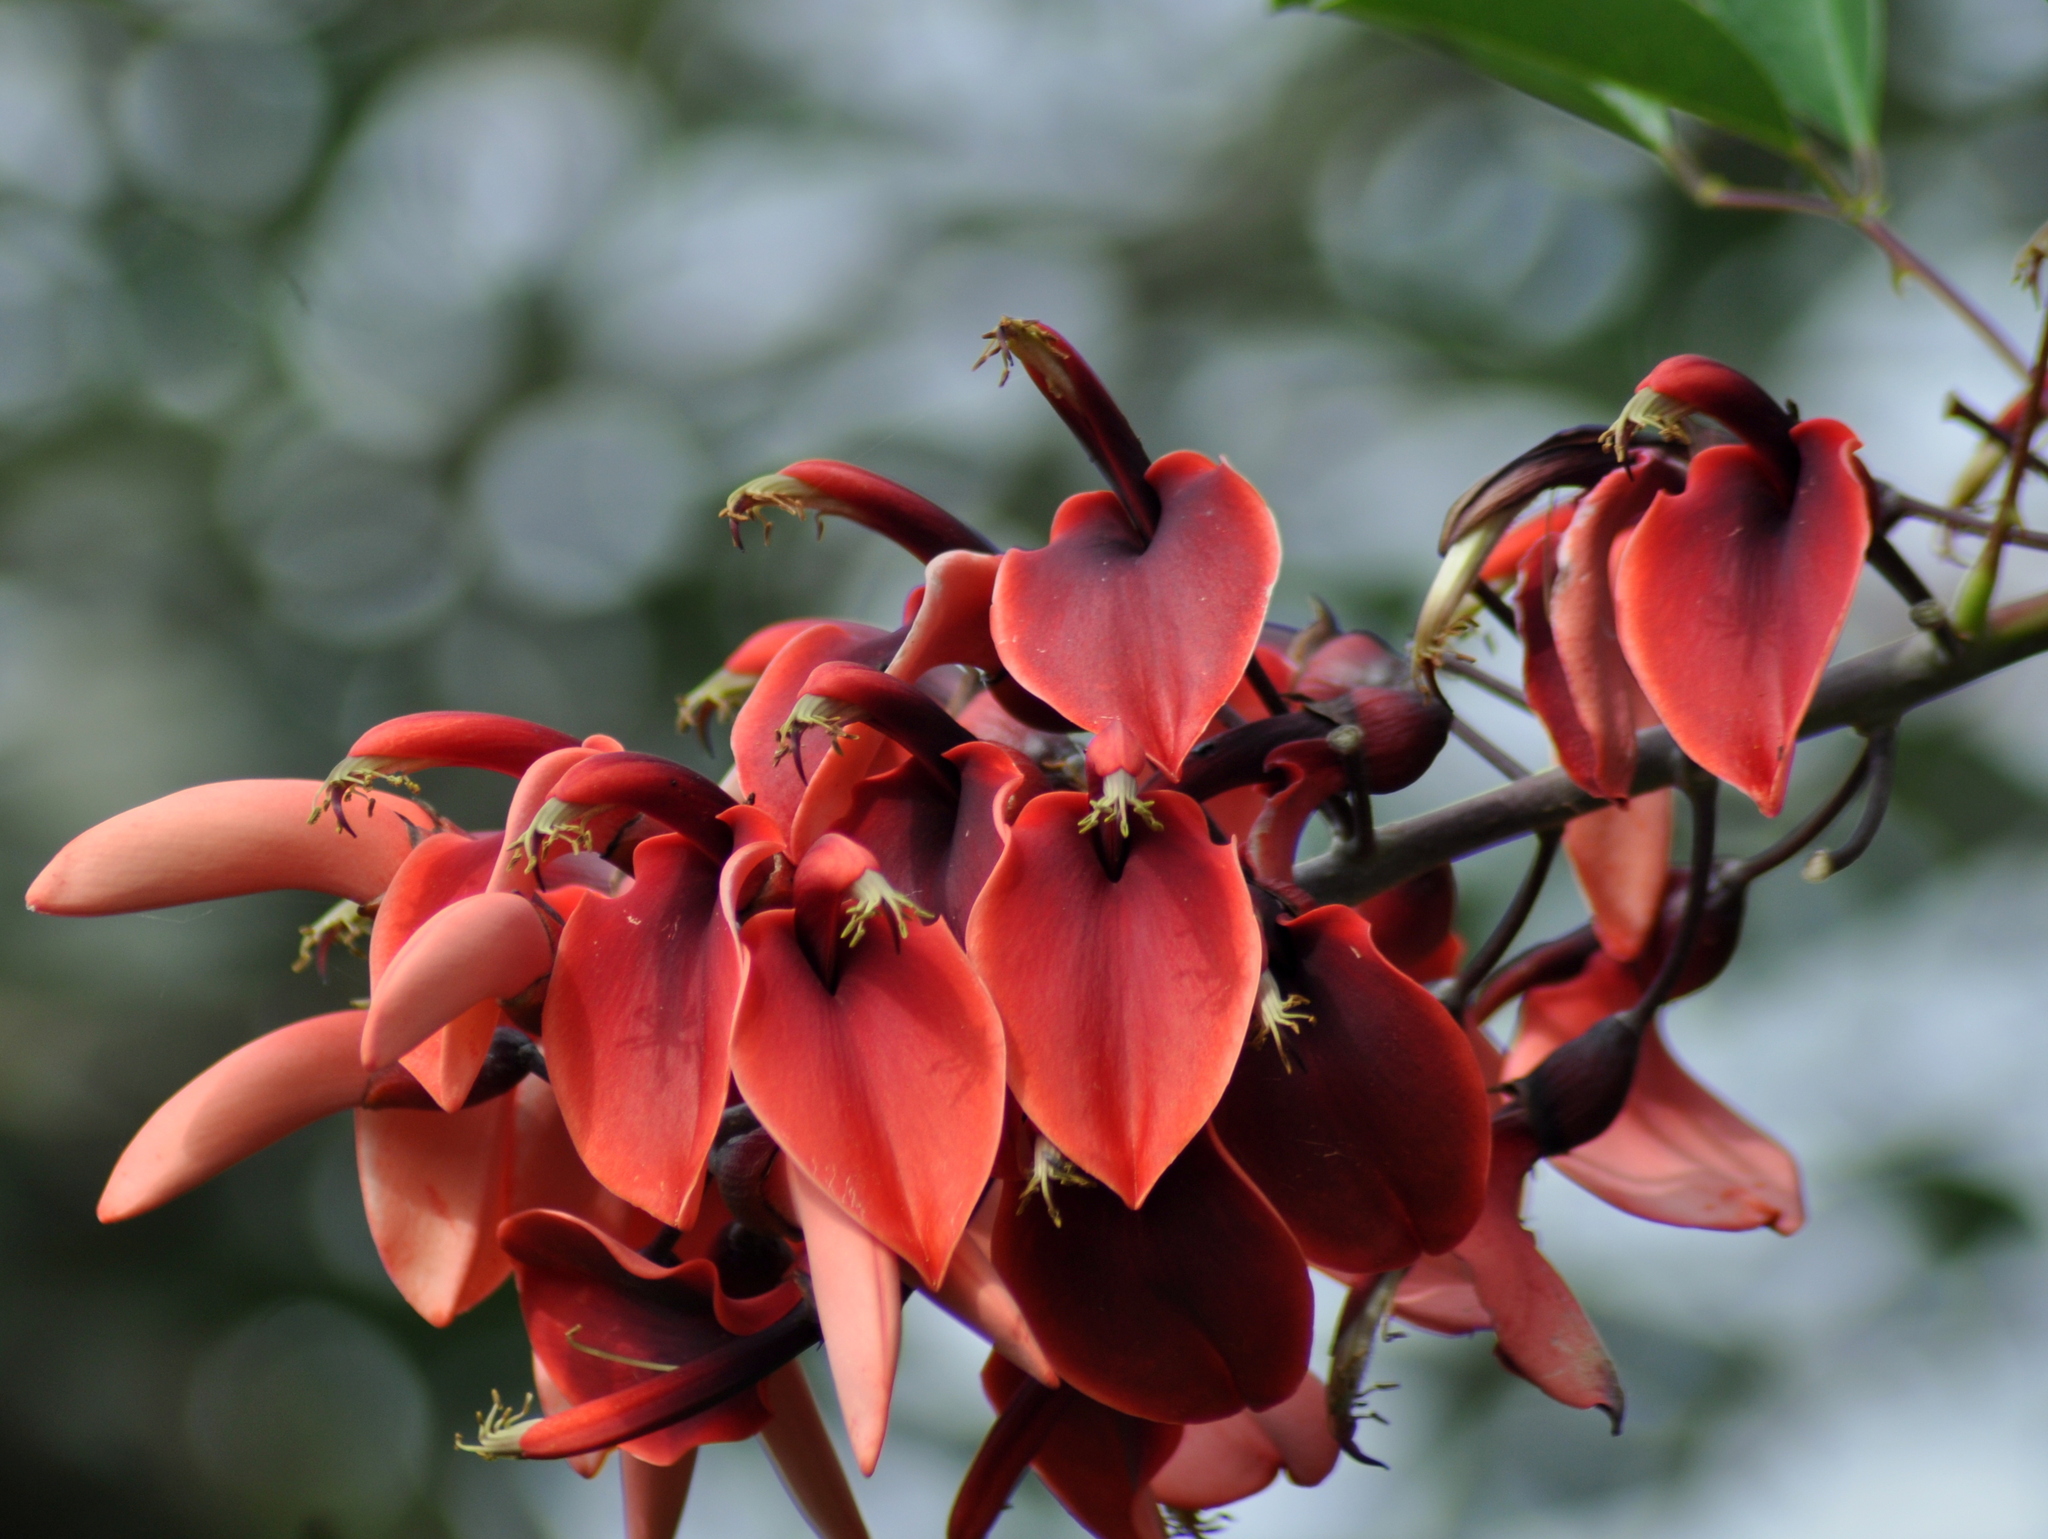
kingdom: Plantae
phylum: Tracheophyta
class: Magnoliopsida
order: Fabales
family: Fabaceae
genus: Erythrina
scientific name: Erythrina crista-galli
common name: Cockspur coral tree
